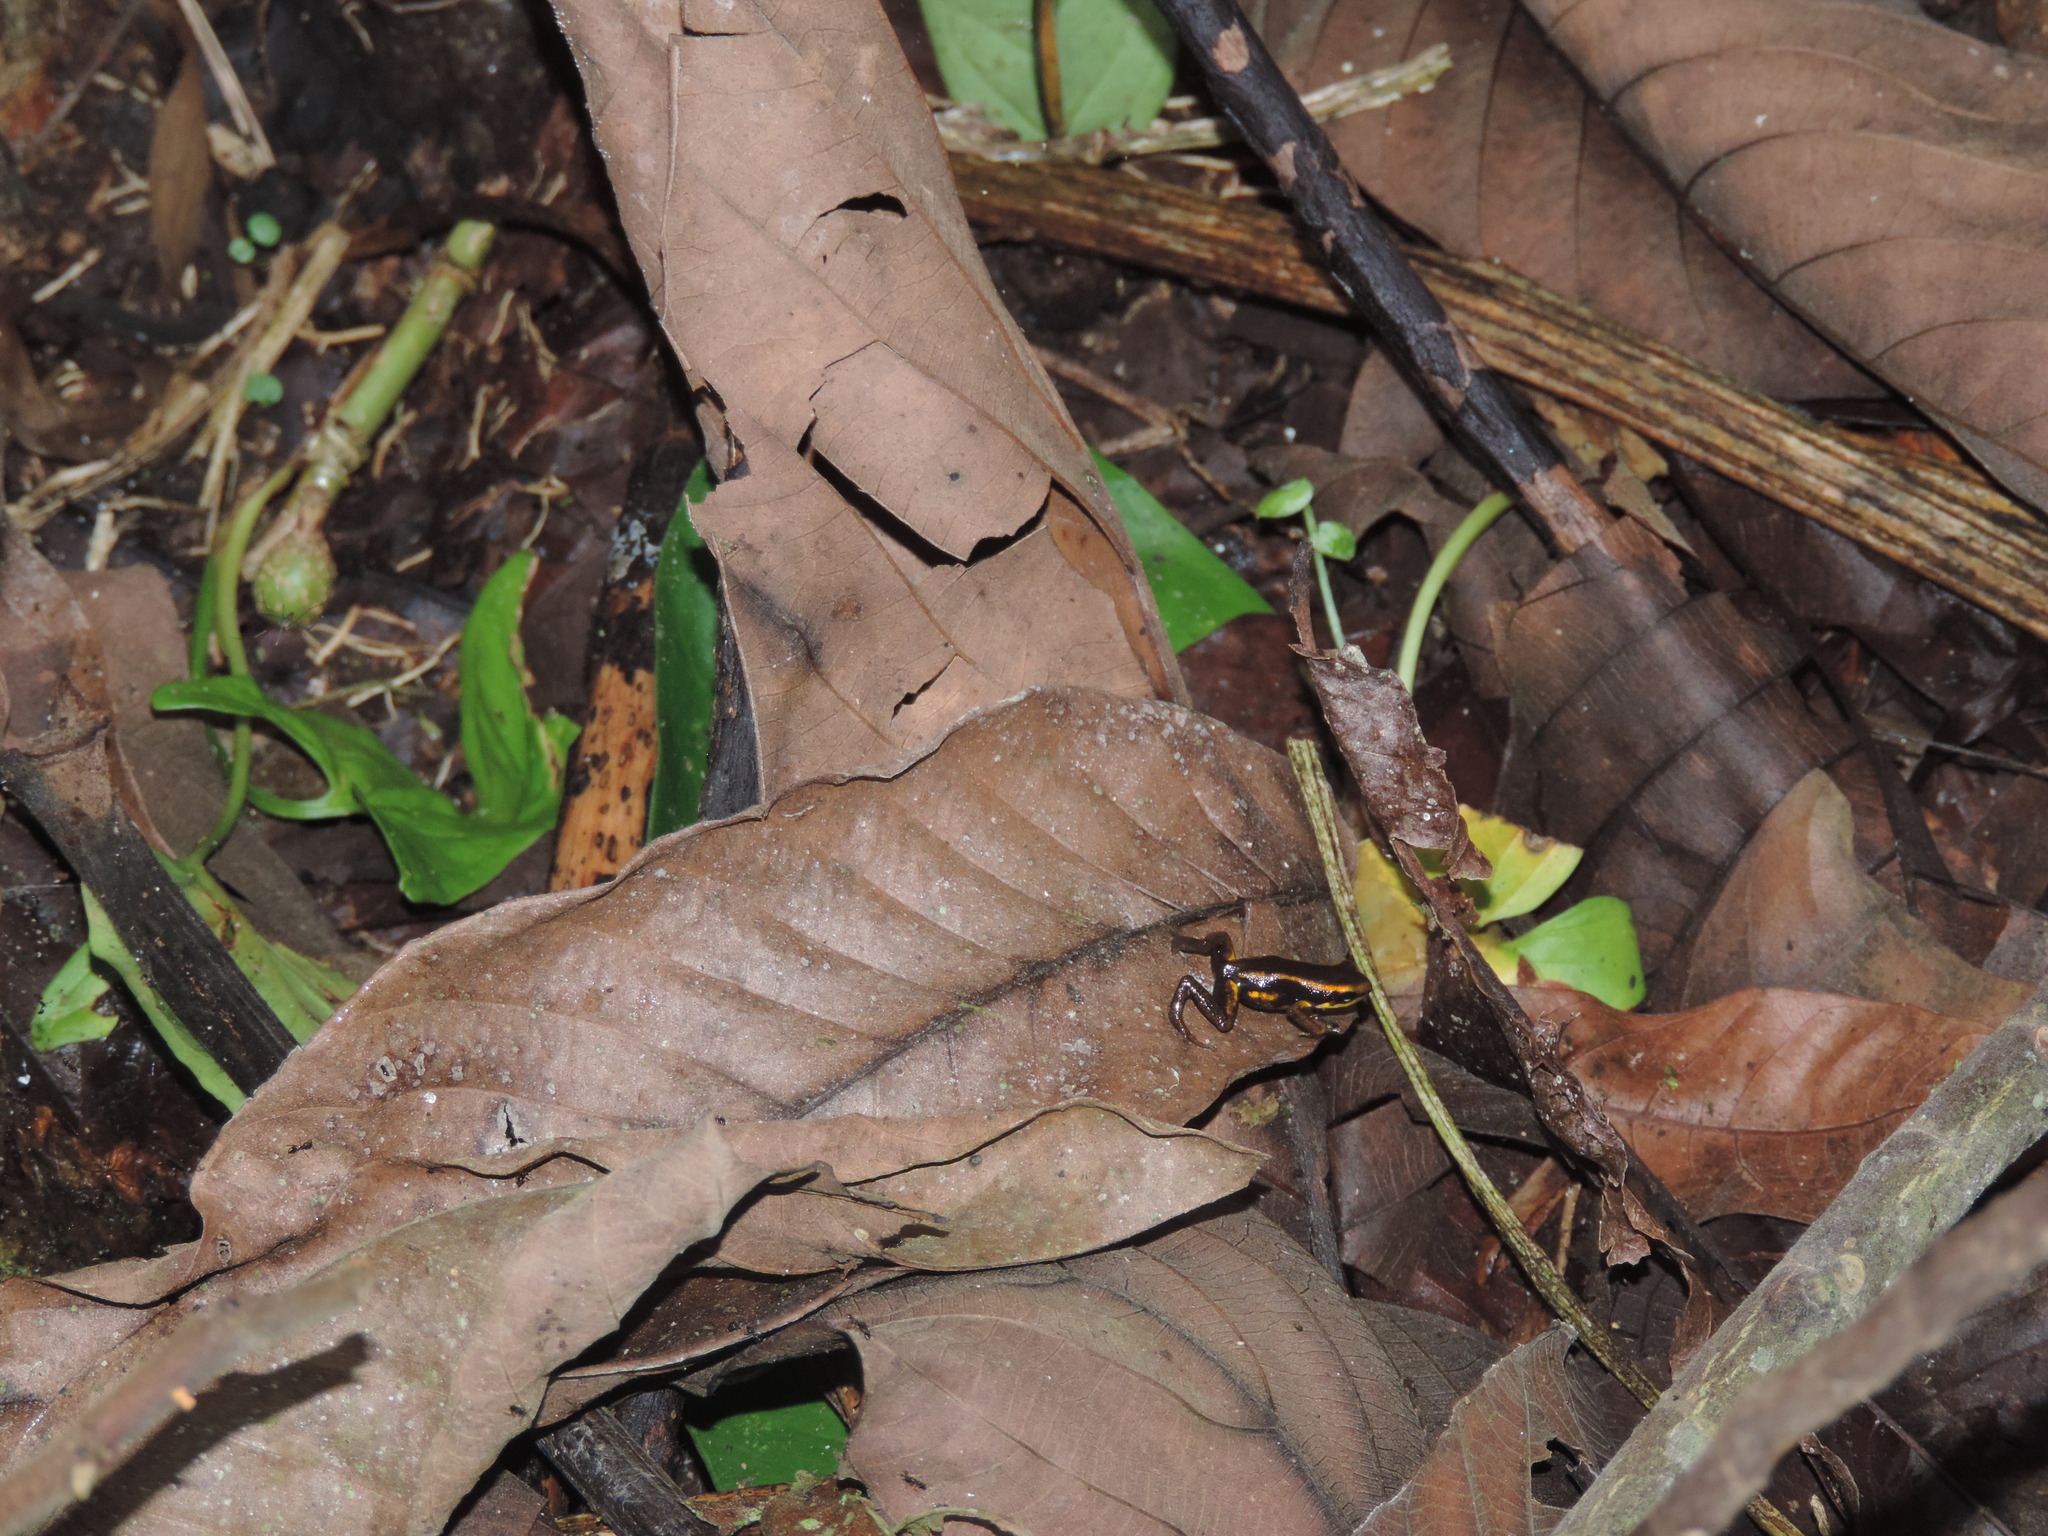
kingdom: Animalia
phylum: Chordata
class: Amphibia
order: Anura
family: Dendrobatidae
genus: Andinobates
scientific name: Andinobates fulguritus
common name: Yellow-bellied poison frog
